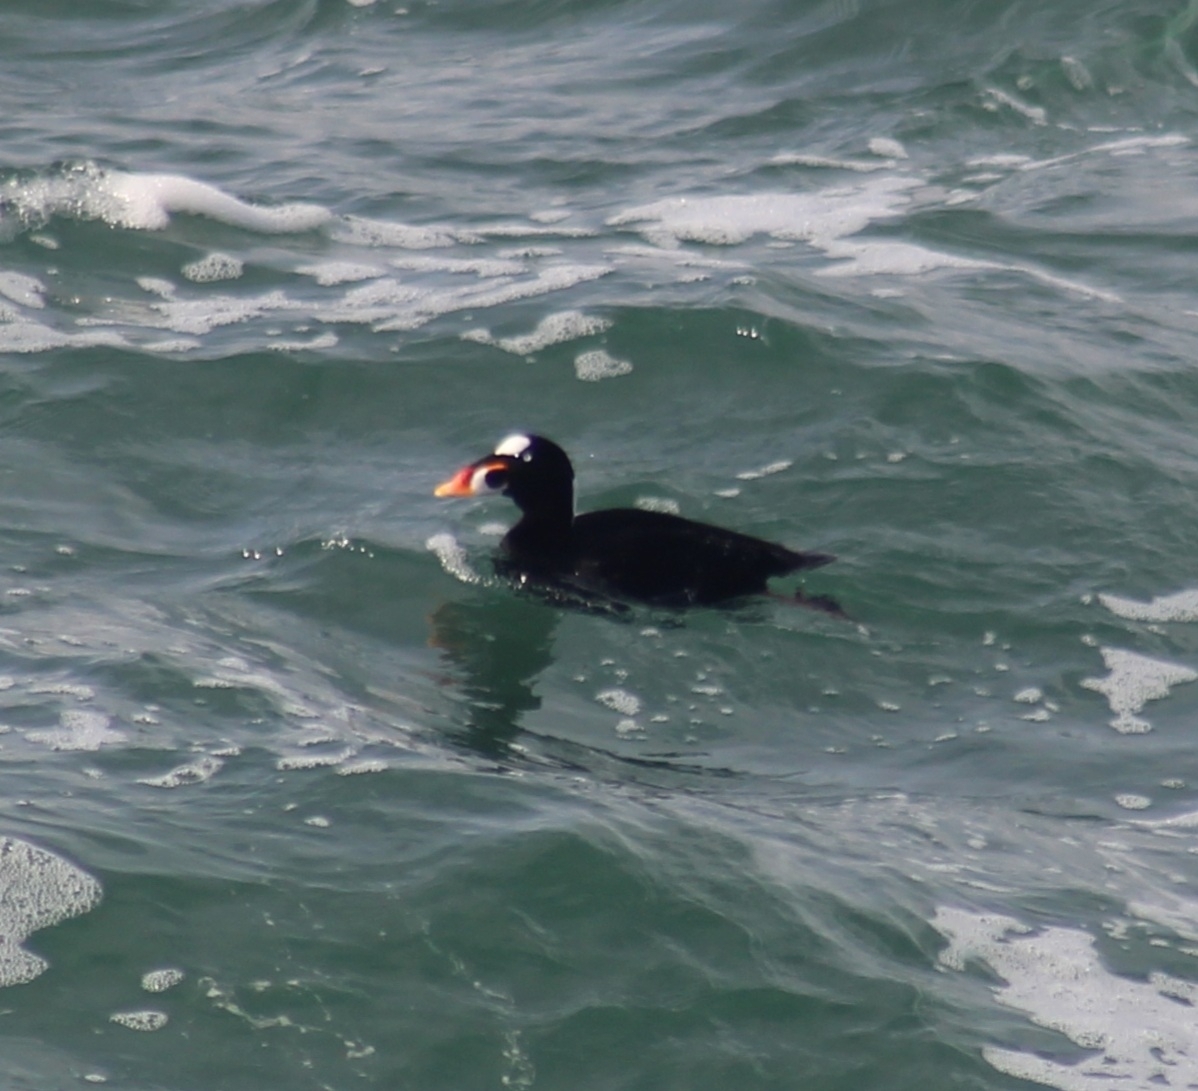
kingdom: Animalia
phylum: Chordata
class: Aves
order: Anseriformes
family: Anatidae
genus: Melanitta
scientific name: Melanitta perspicillata
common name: Surf scoter
